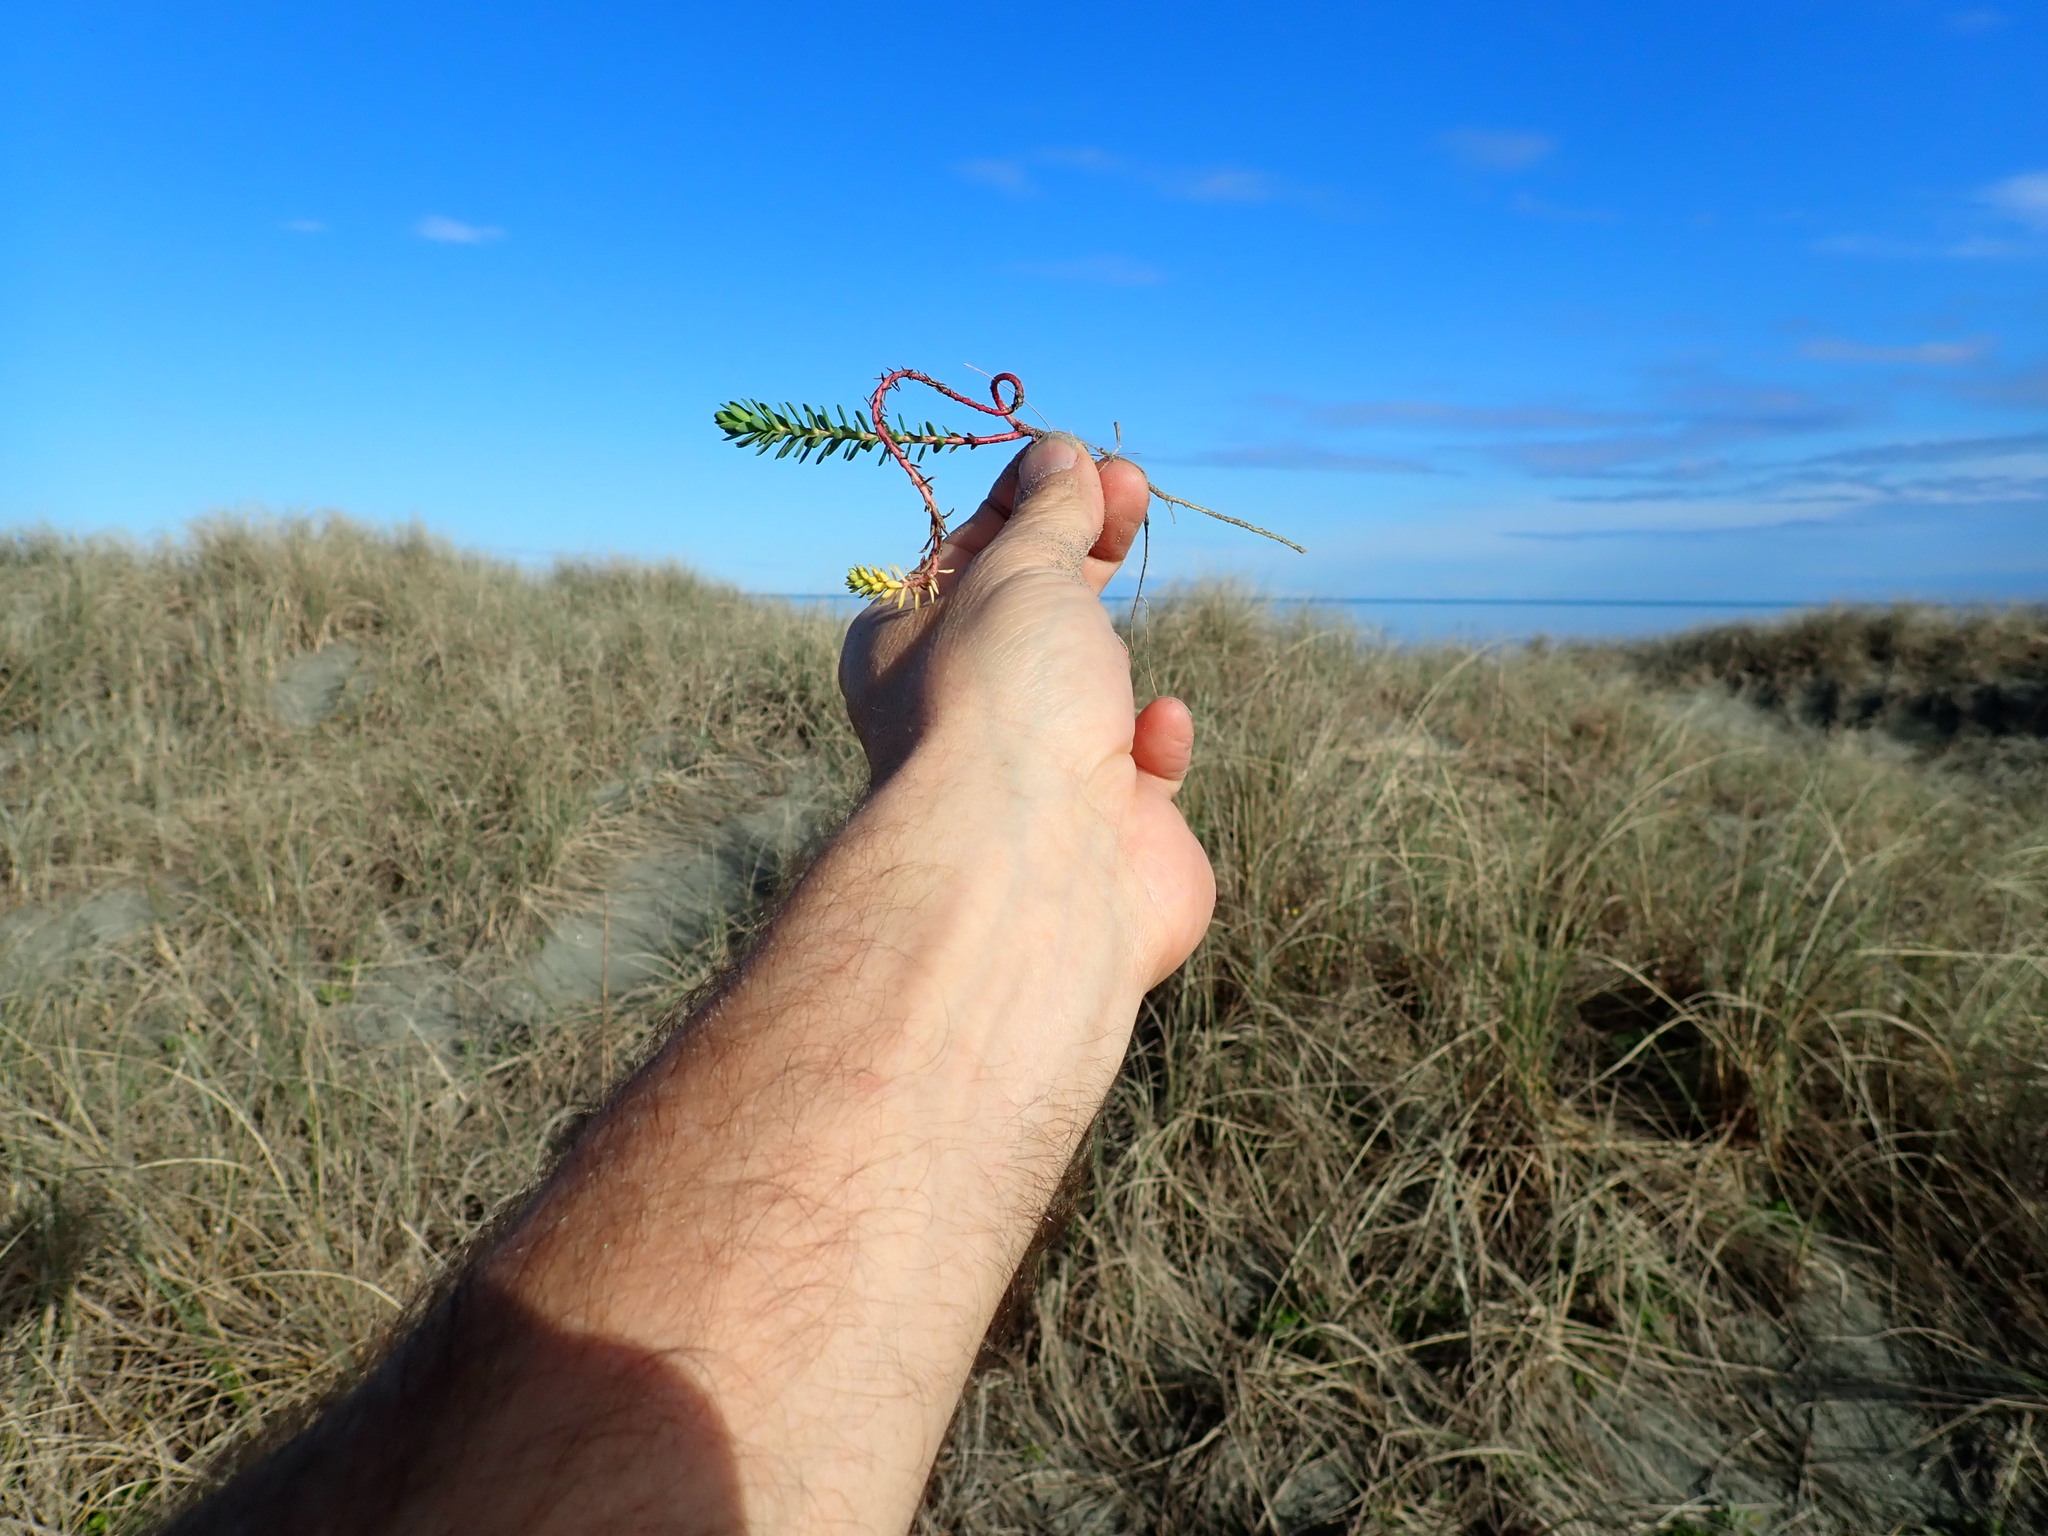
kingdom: Plantae
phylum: Tracheophyta
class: Magnoliopsida
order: Malpighiales
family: Euphorbiaceae
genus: Euphorbia
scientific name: Euphorbia paralias
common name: Sea spurge
